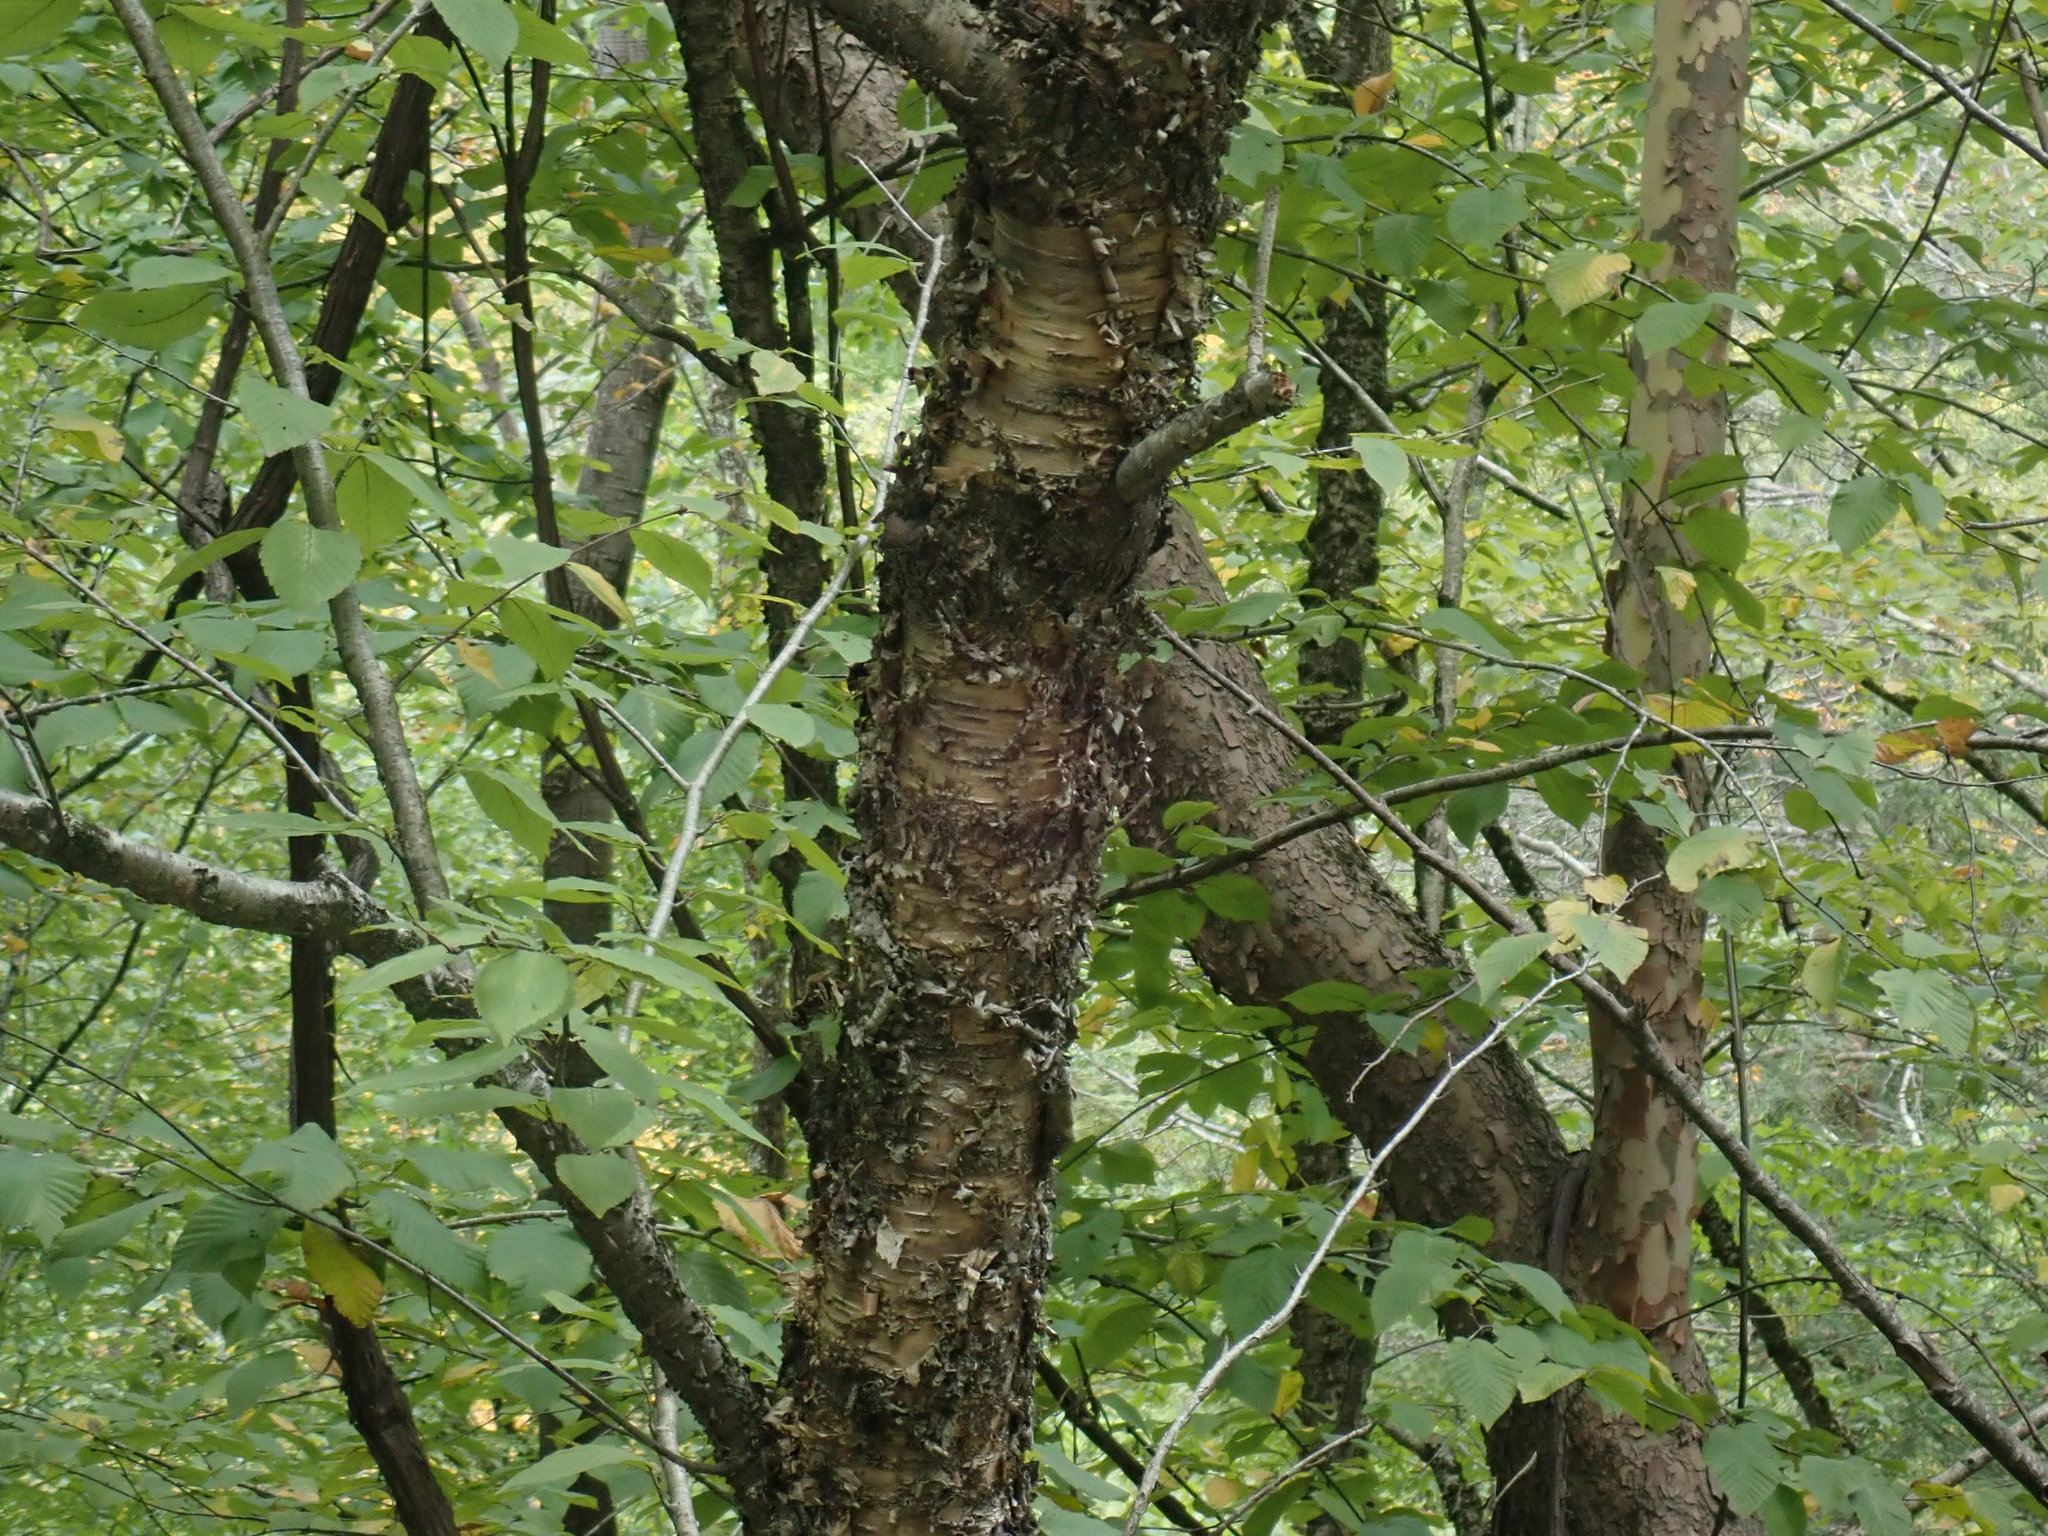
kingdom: Plantae
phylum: Tracheophyta
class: Magnoliopsida
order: Fagales
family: Betulaceae
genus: Betula
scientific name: Betula alleghaniensis
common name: Yellow birch
